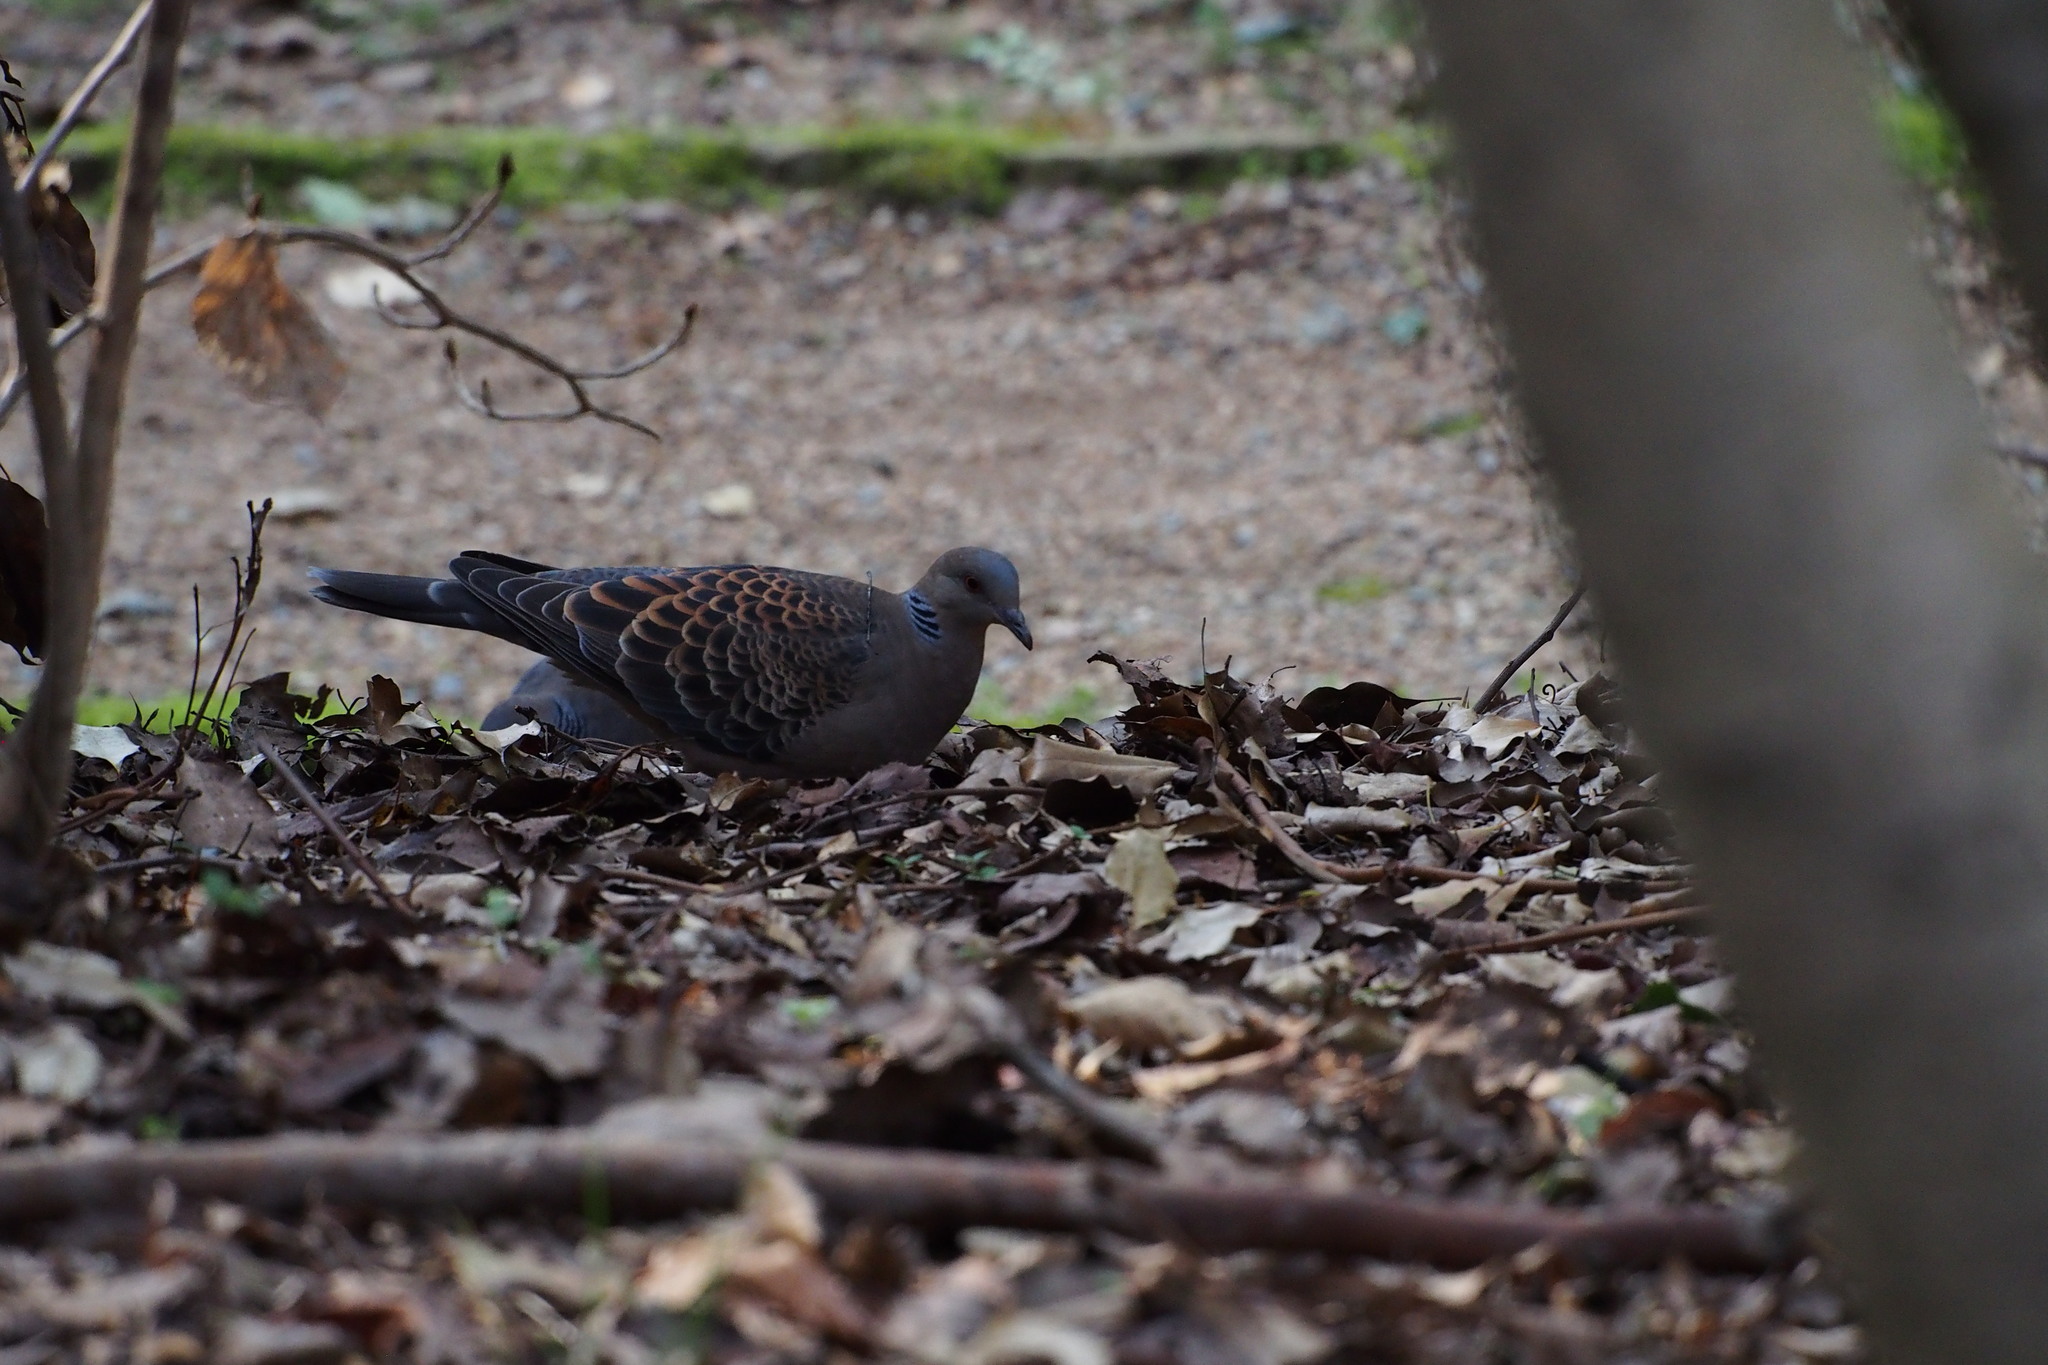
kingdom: Animalia
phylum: Chordata
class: Aves
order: Columbiformes
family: Columbidae
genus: Streptopelia
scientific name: Streptopelia orientalis
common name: Oriental turtle dove
